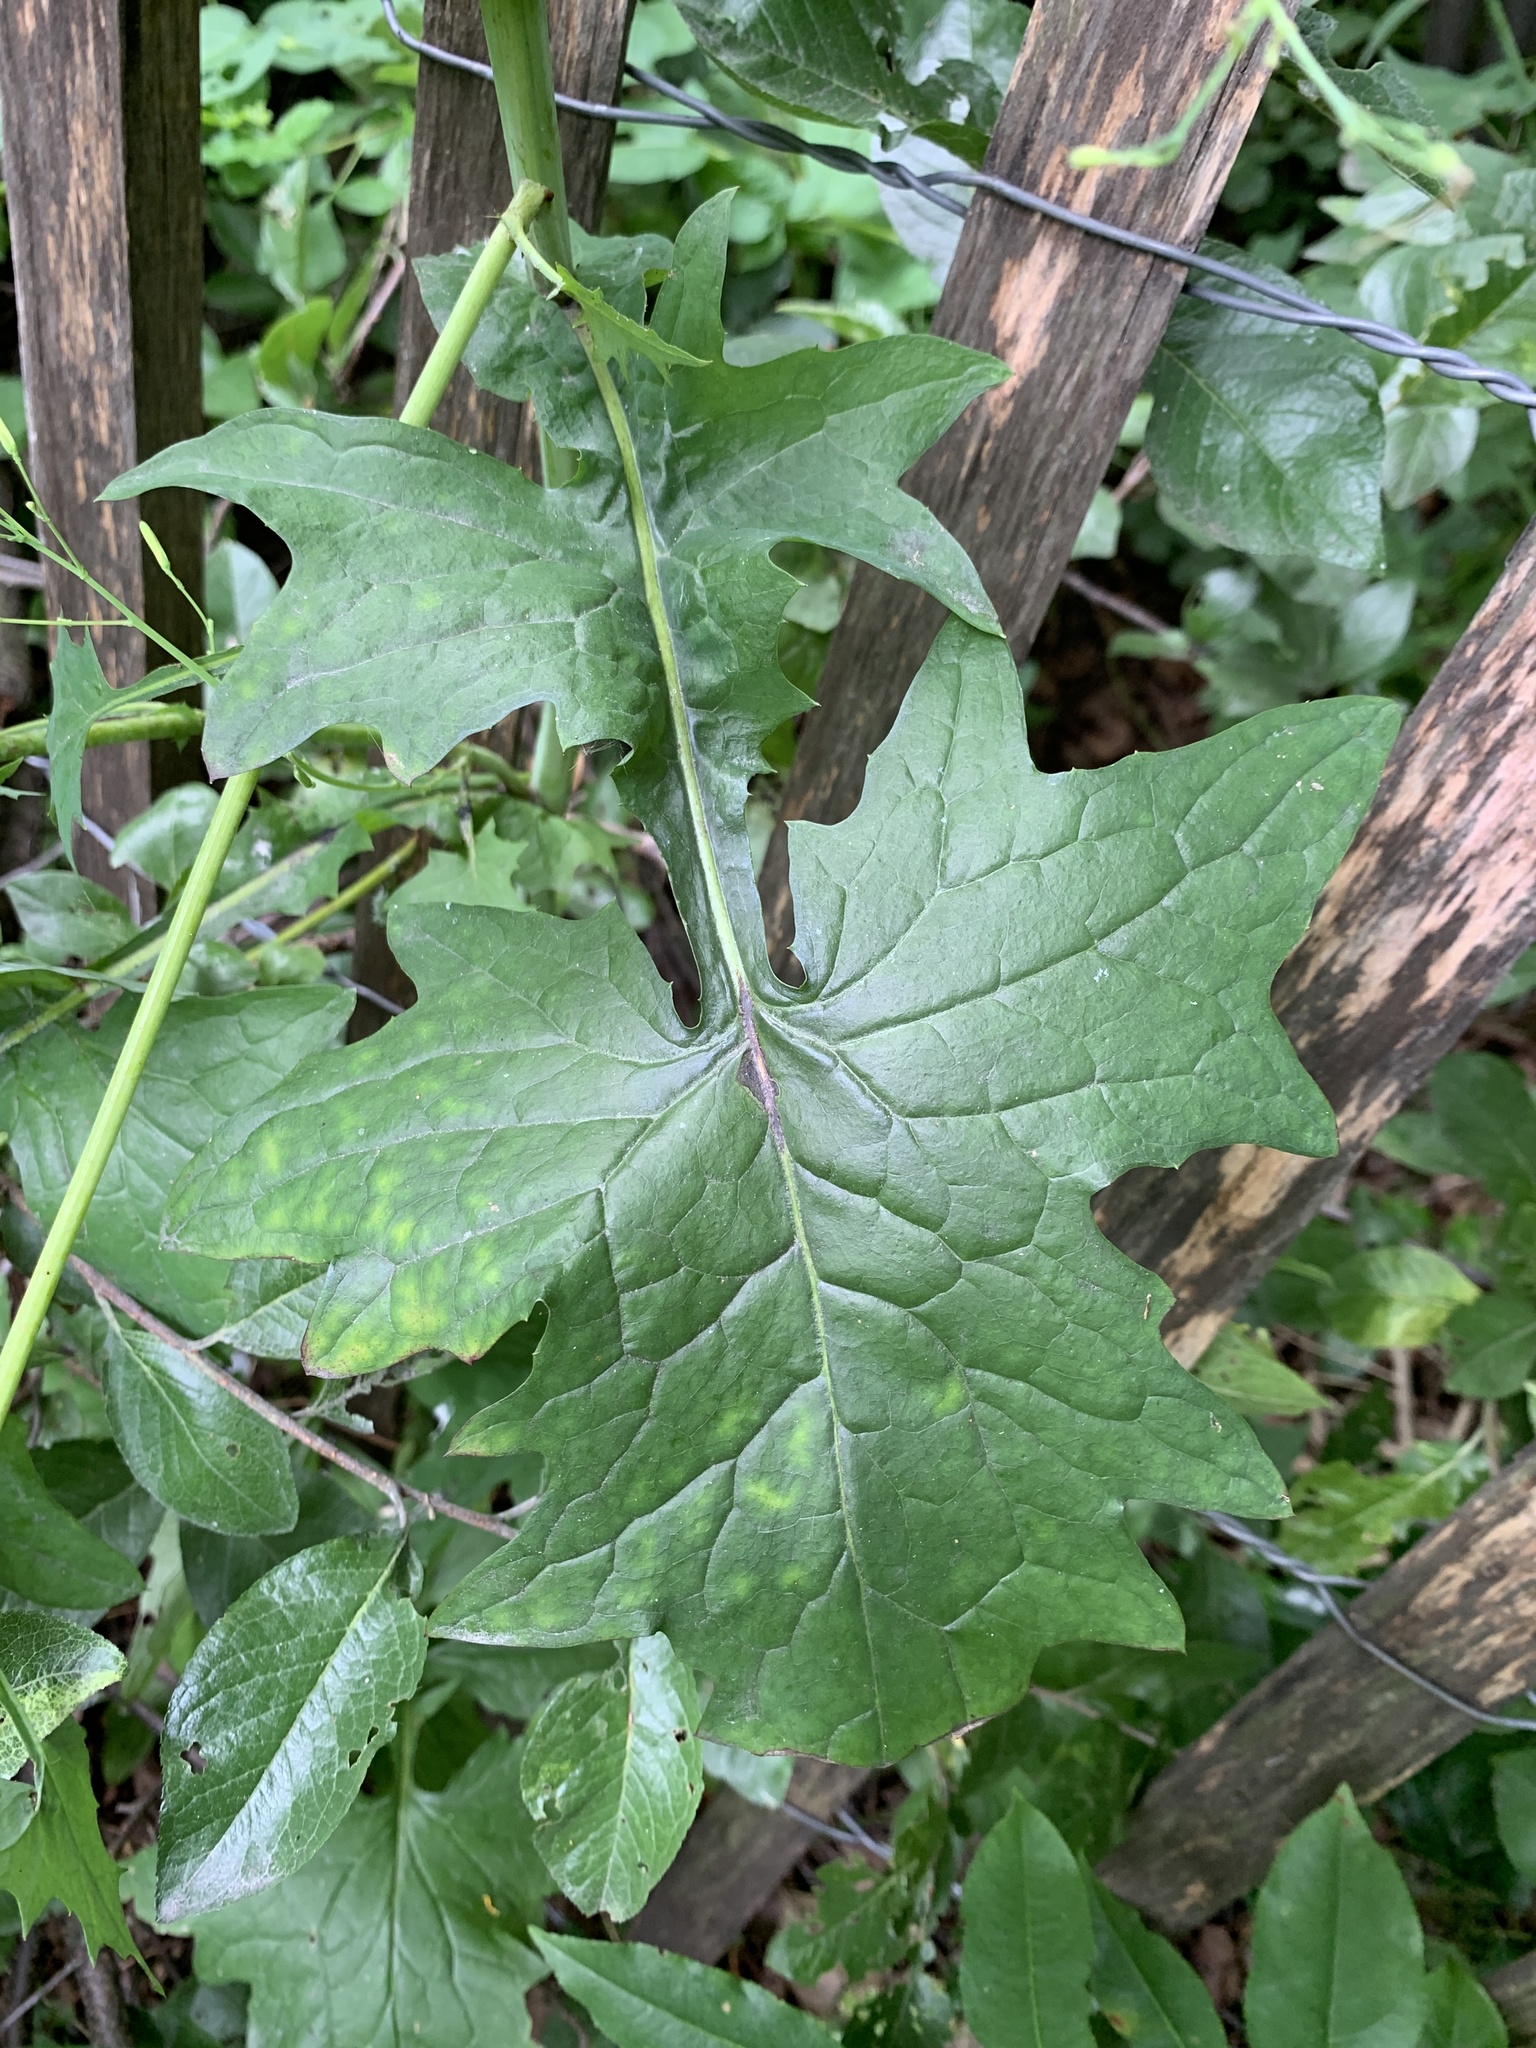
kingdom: Plantae
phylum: Tracheophyta
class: Magnoliopsida
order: Asterales
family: Asteraceae
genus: Mycelis
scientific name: Mycelis muralis
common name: Wall lettuce
